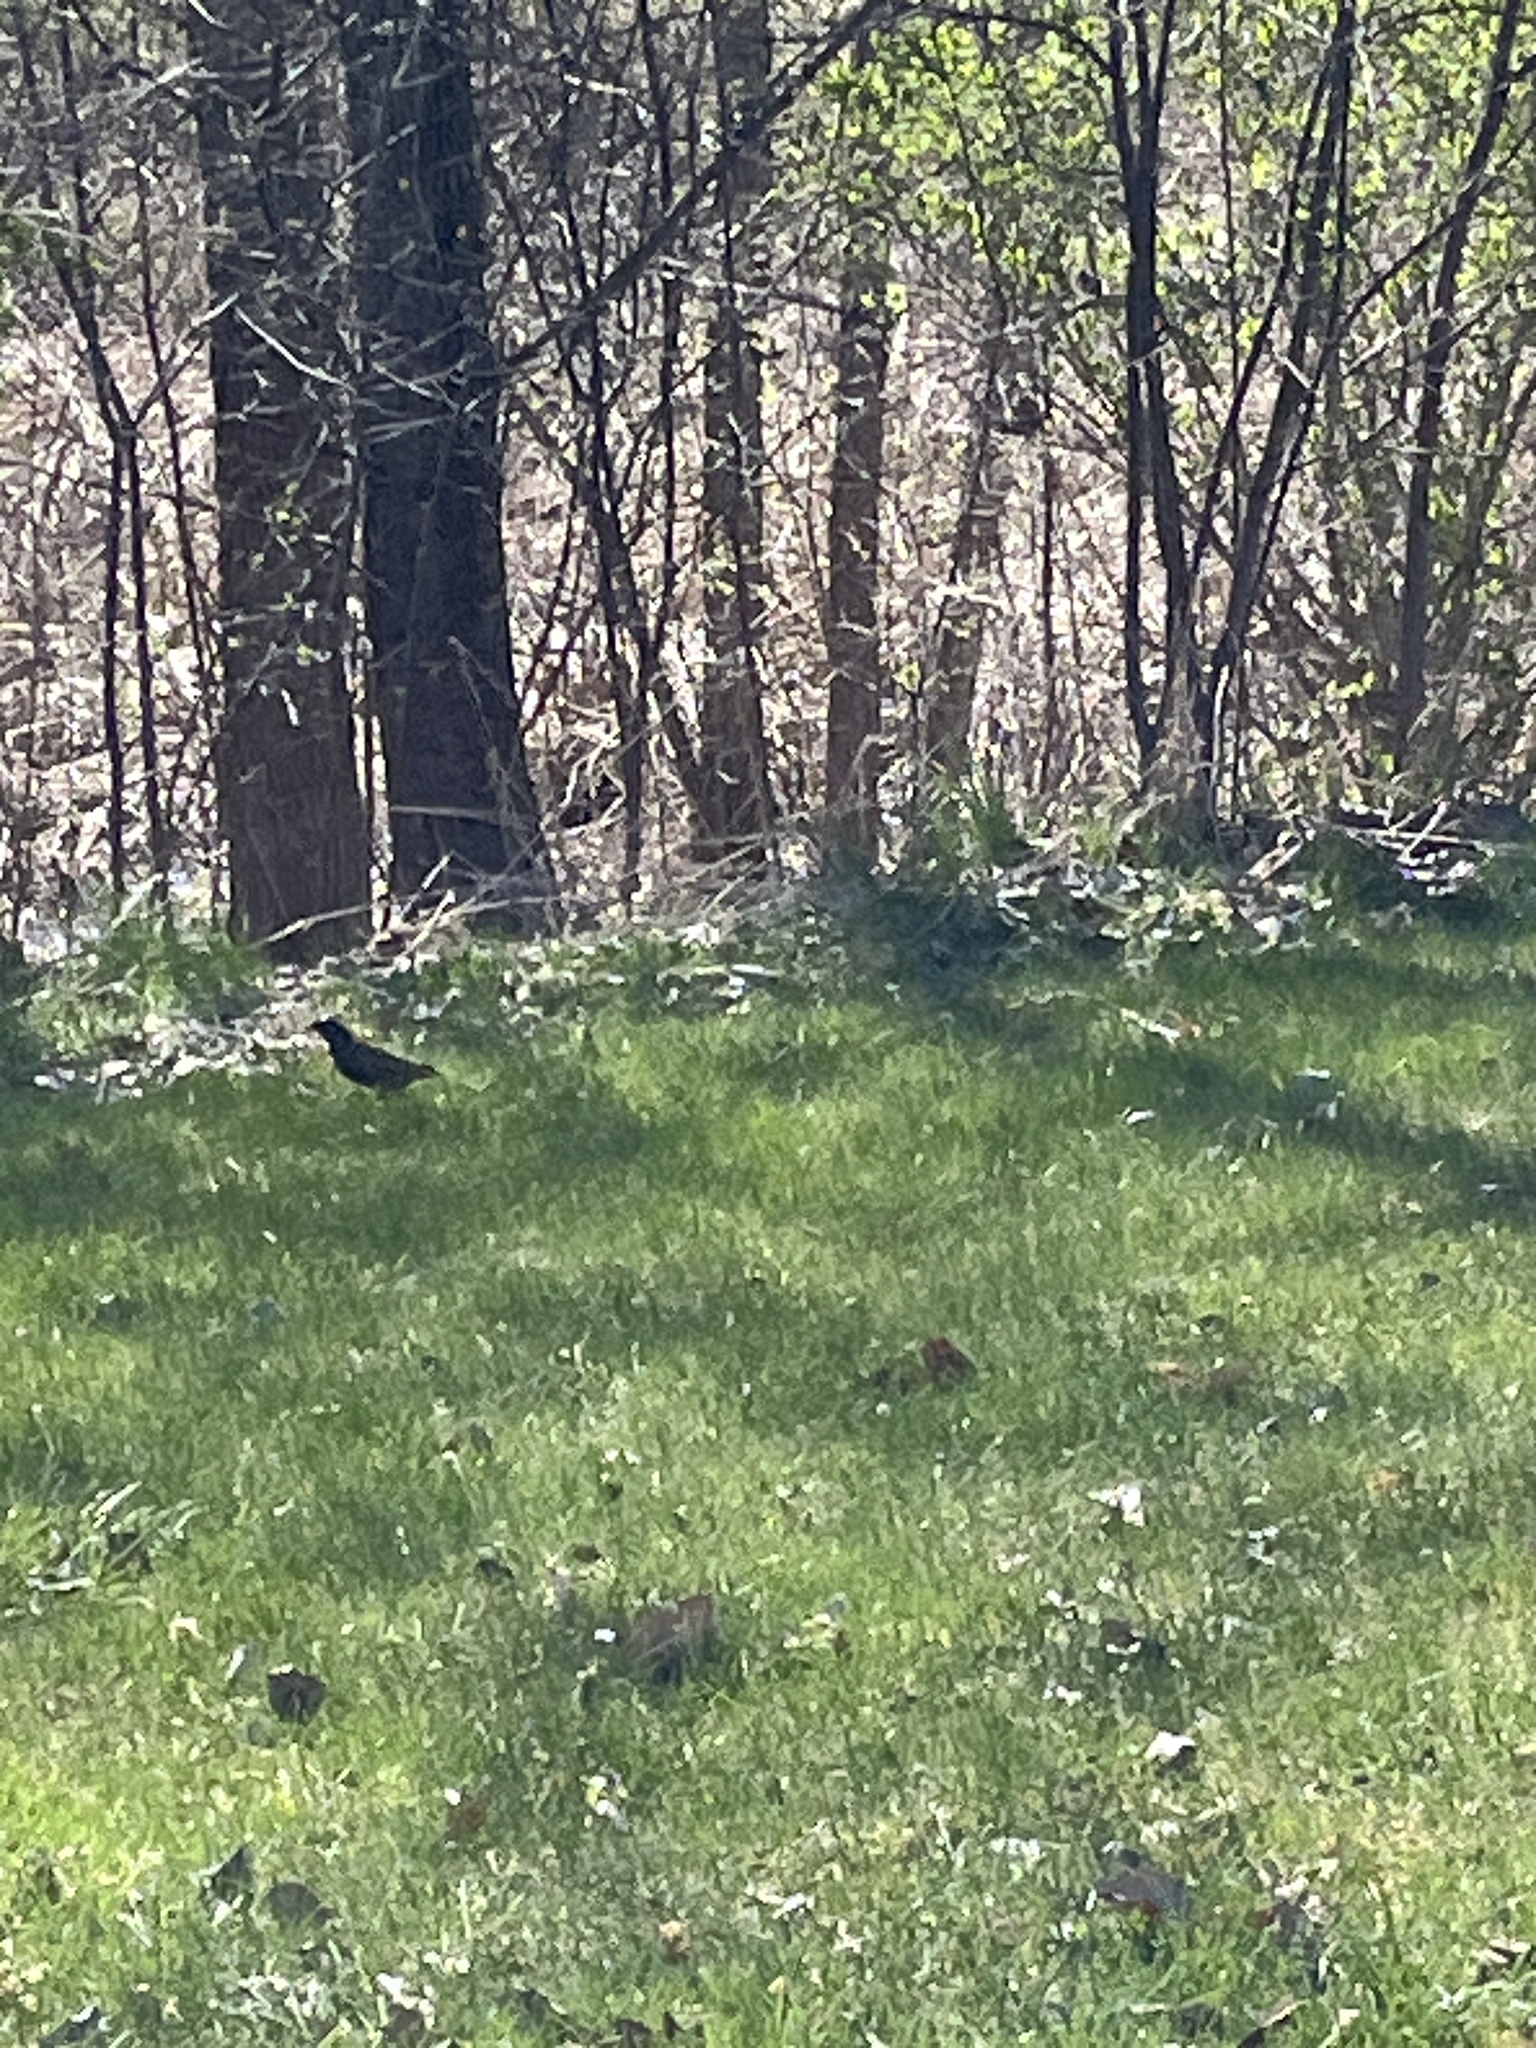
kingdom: Animalia
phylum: Chordata
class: Aves
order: Passeriformes
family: Sturnidae
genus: Sturnus
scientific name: Sturnus vulgaris
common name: Common starling
